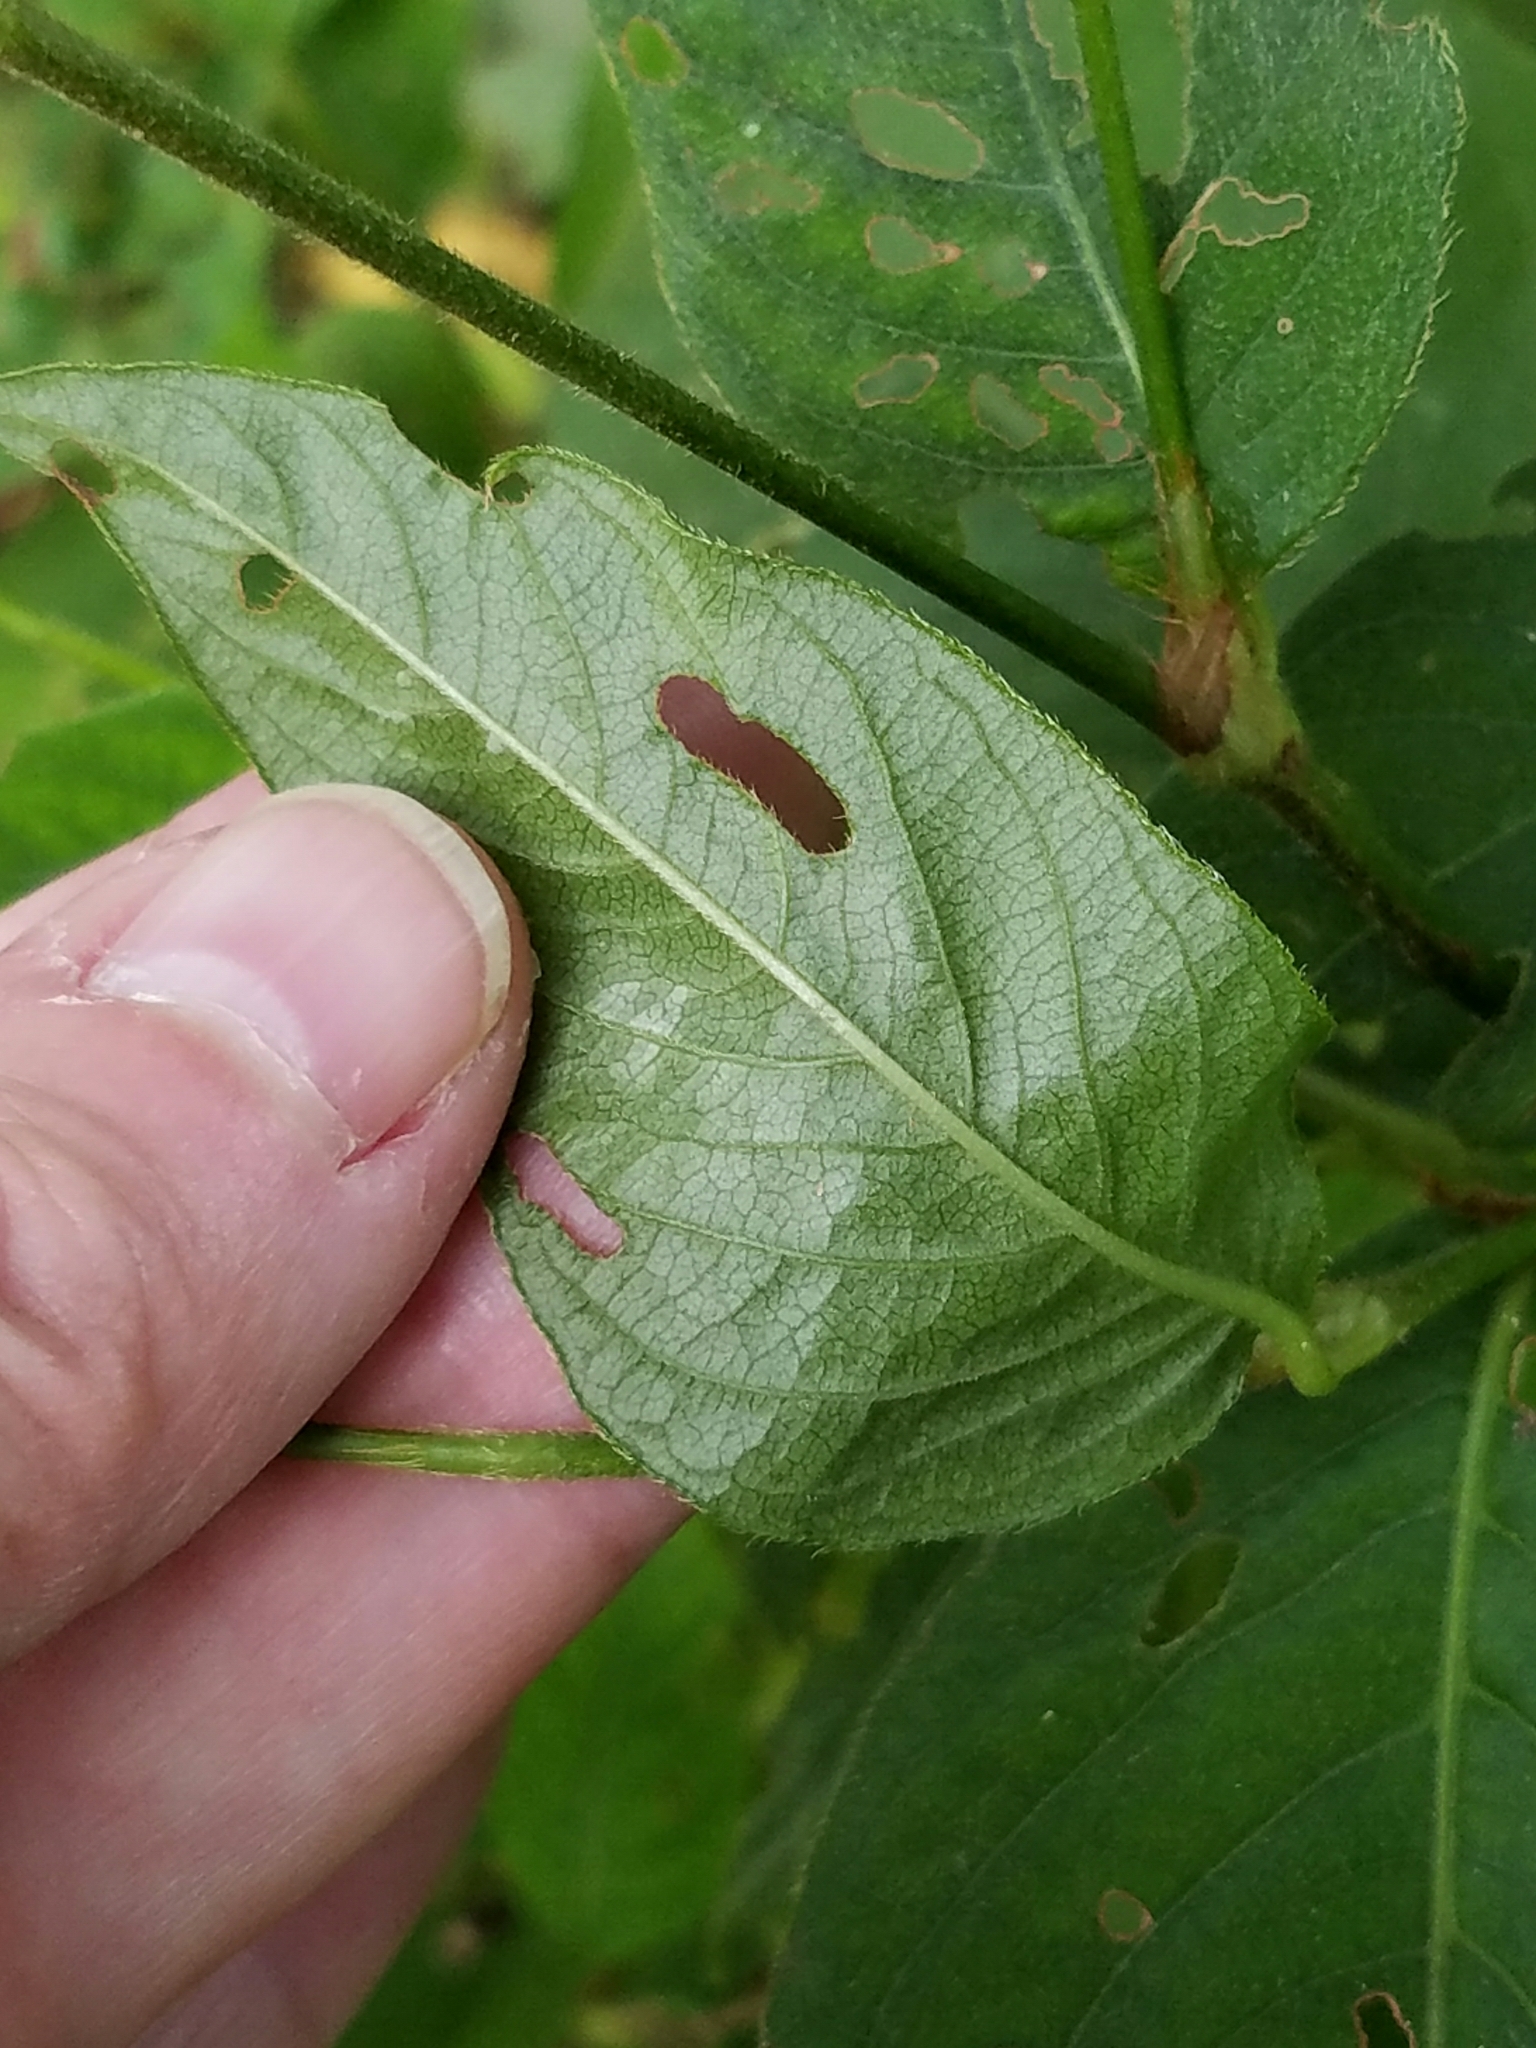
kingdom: Plantae
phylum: Tracheophyta
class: Magnoliopsida
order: Caryophyllales
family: Polygonaceae
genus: Persicaria
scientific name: Persicaria virginiana
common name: Jumpseed
